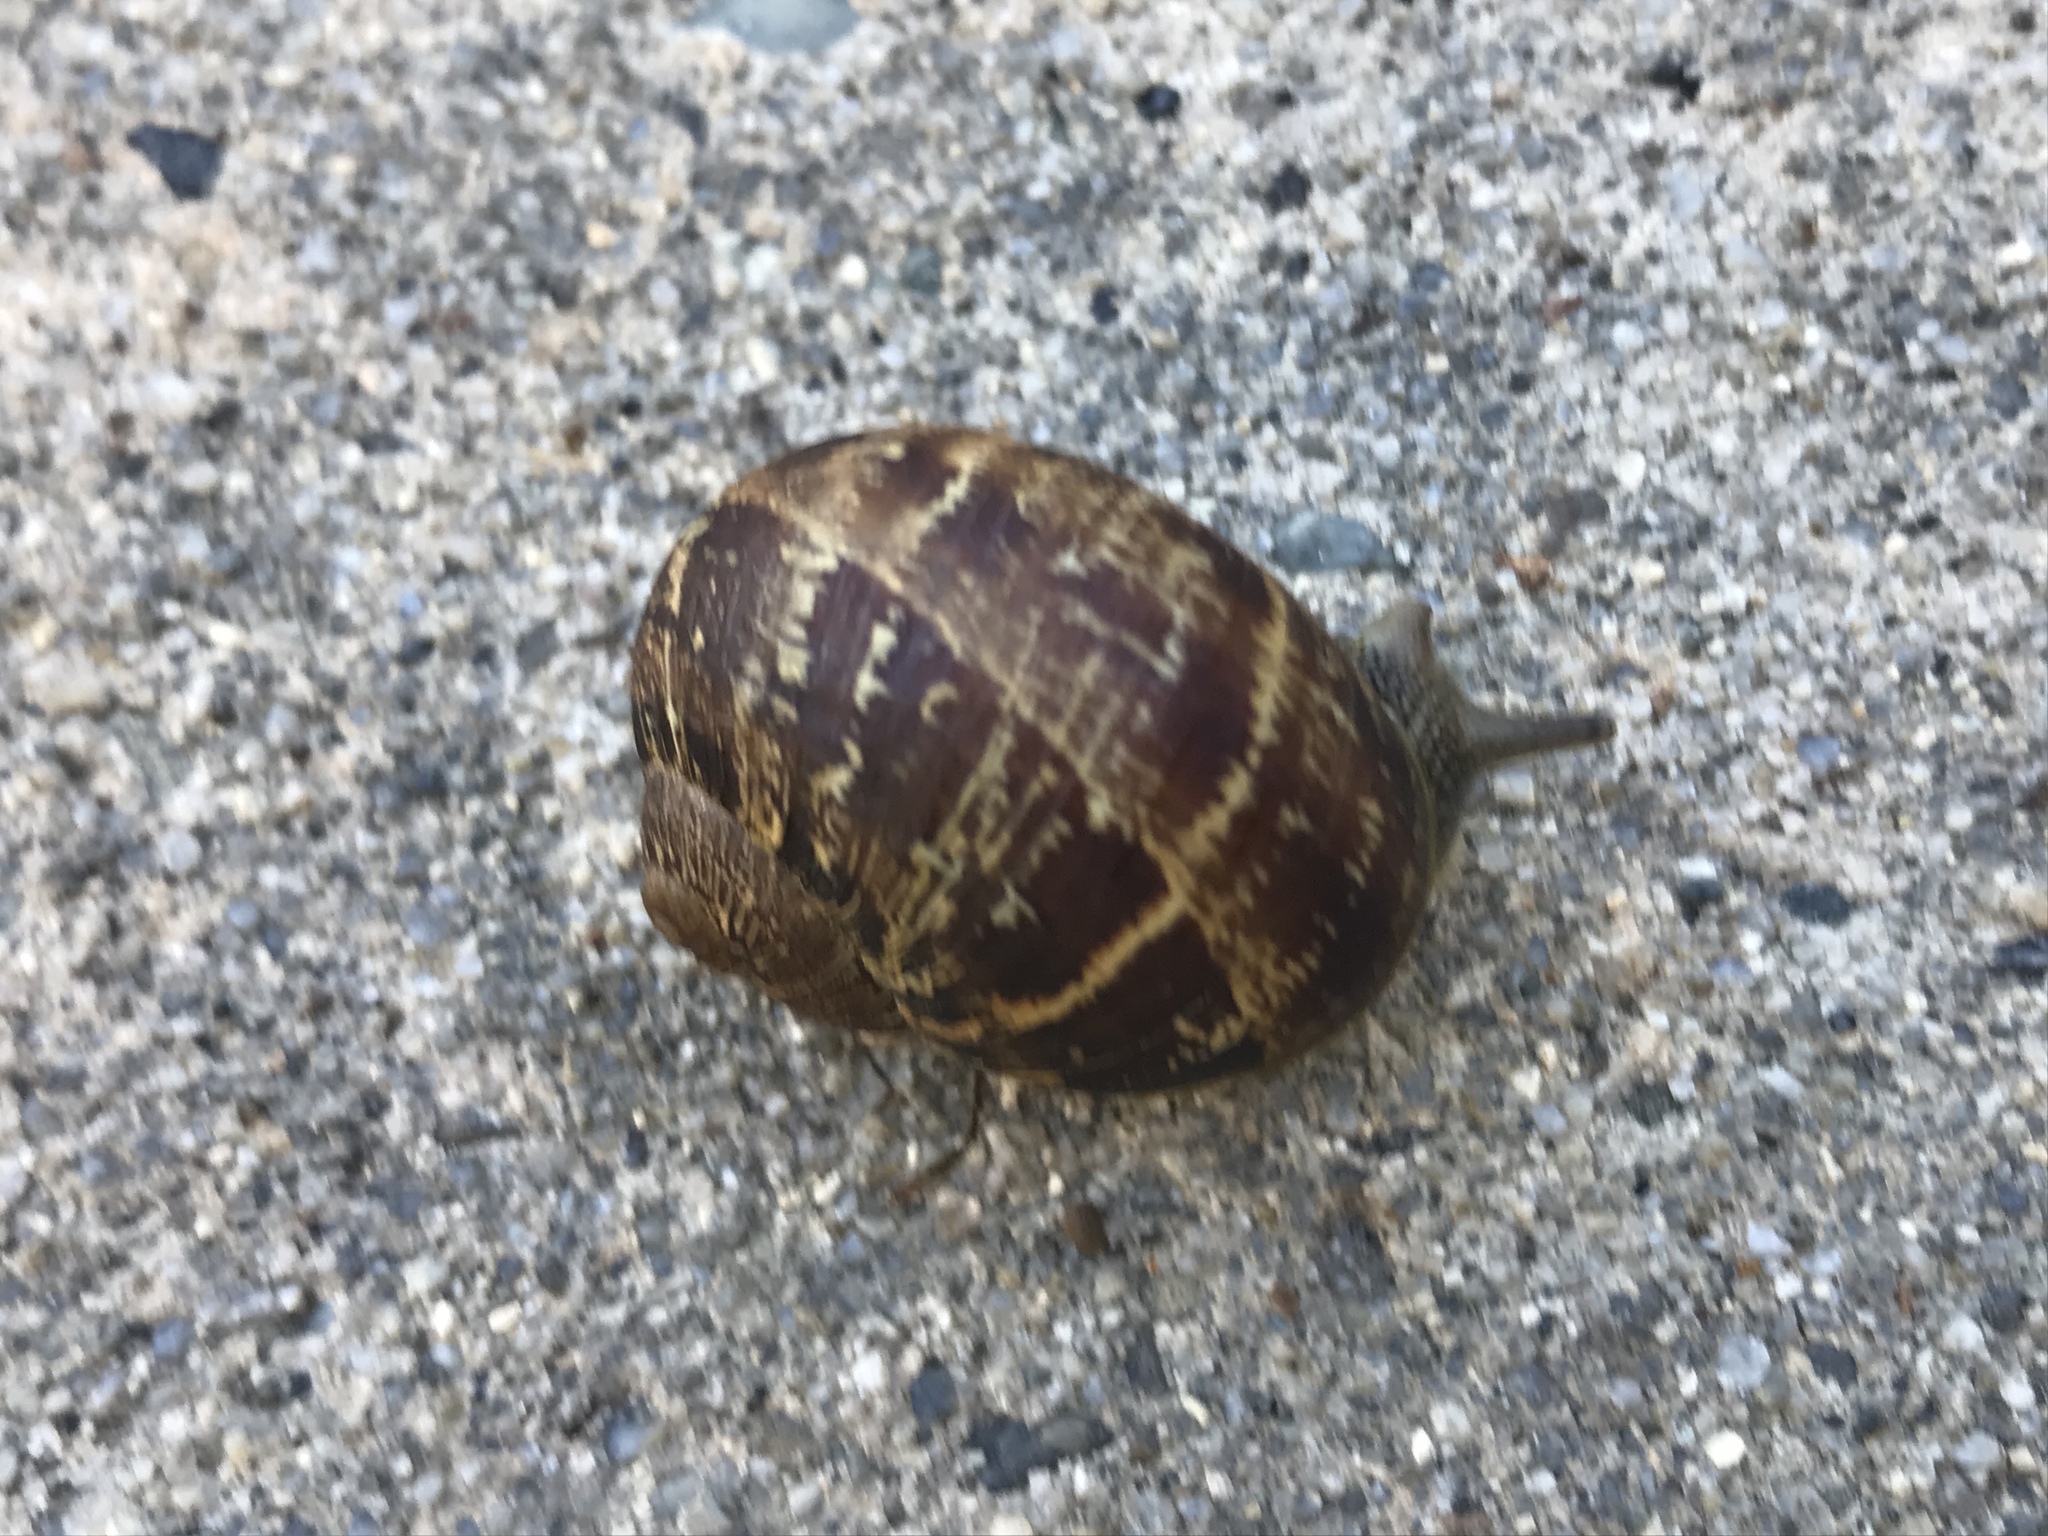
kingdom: Animalia
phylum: Mollusca
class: Gastropoda
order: Stylommatophora
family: Helicidae
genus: Cornu
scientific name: Cornu aspersum
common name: Brown garden snail
